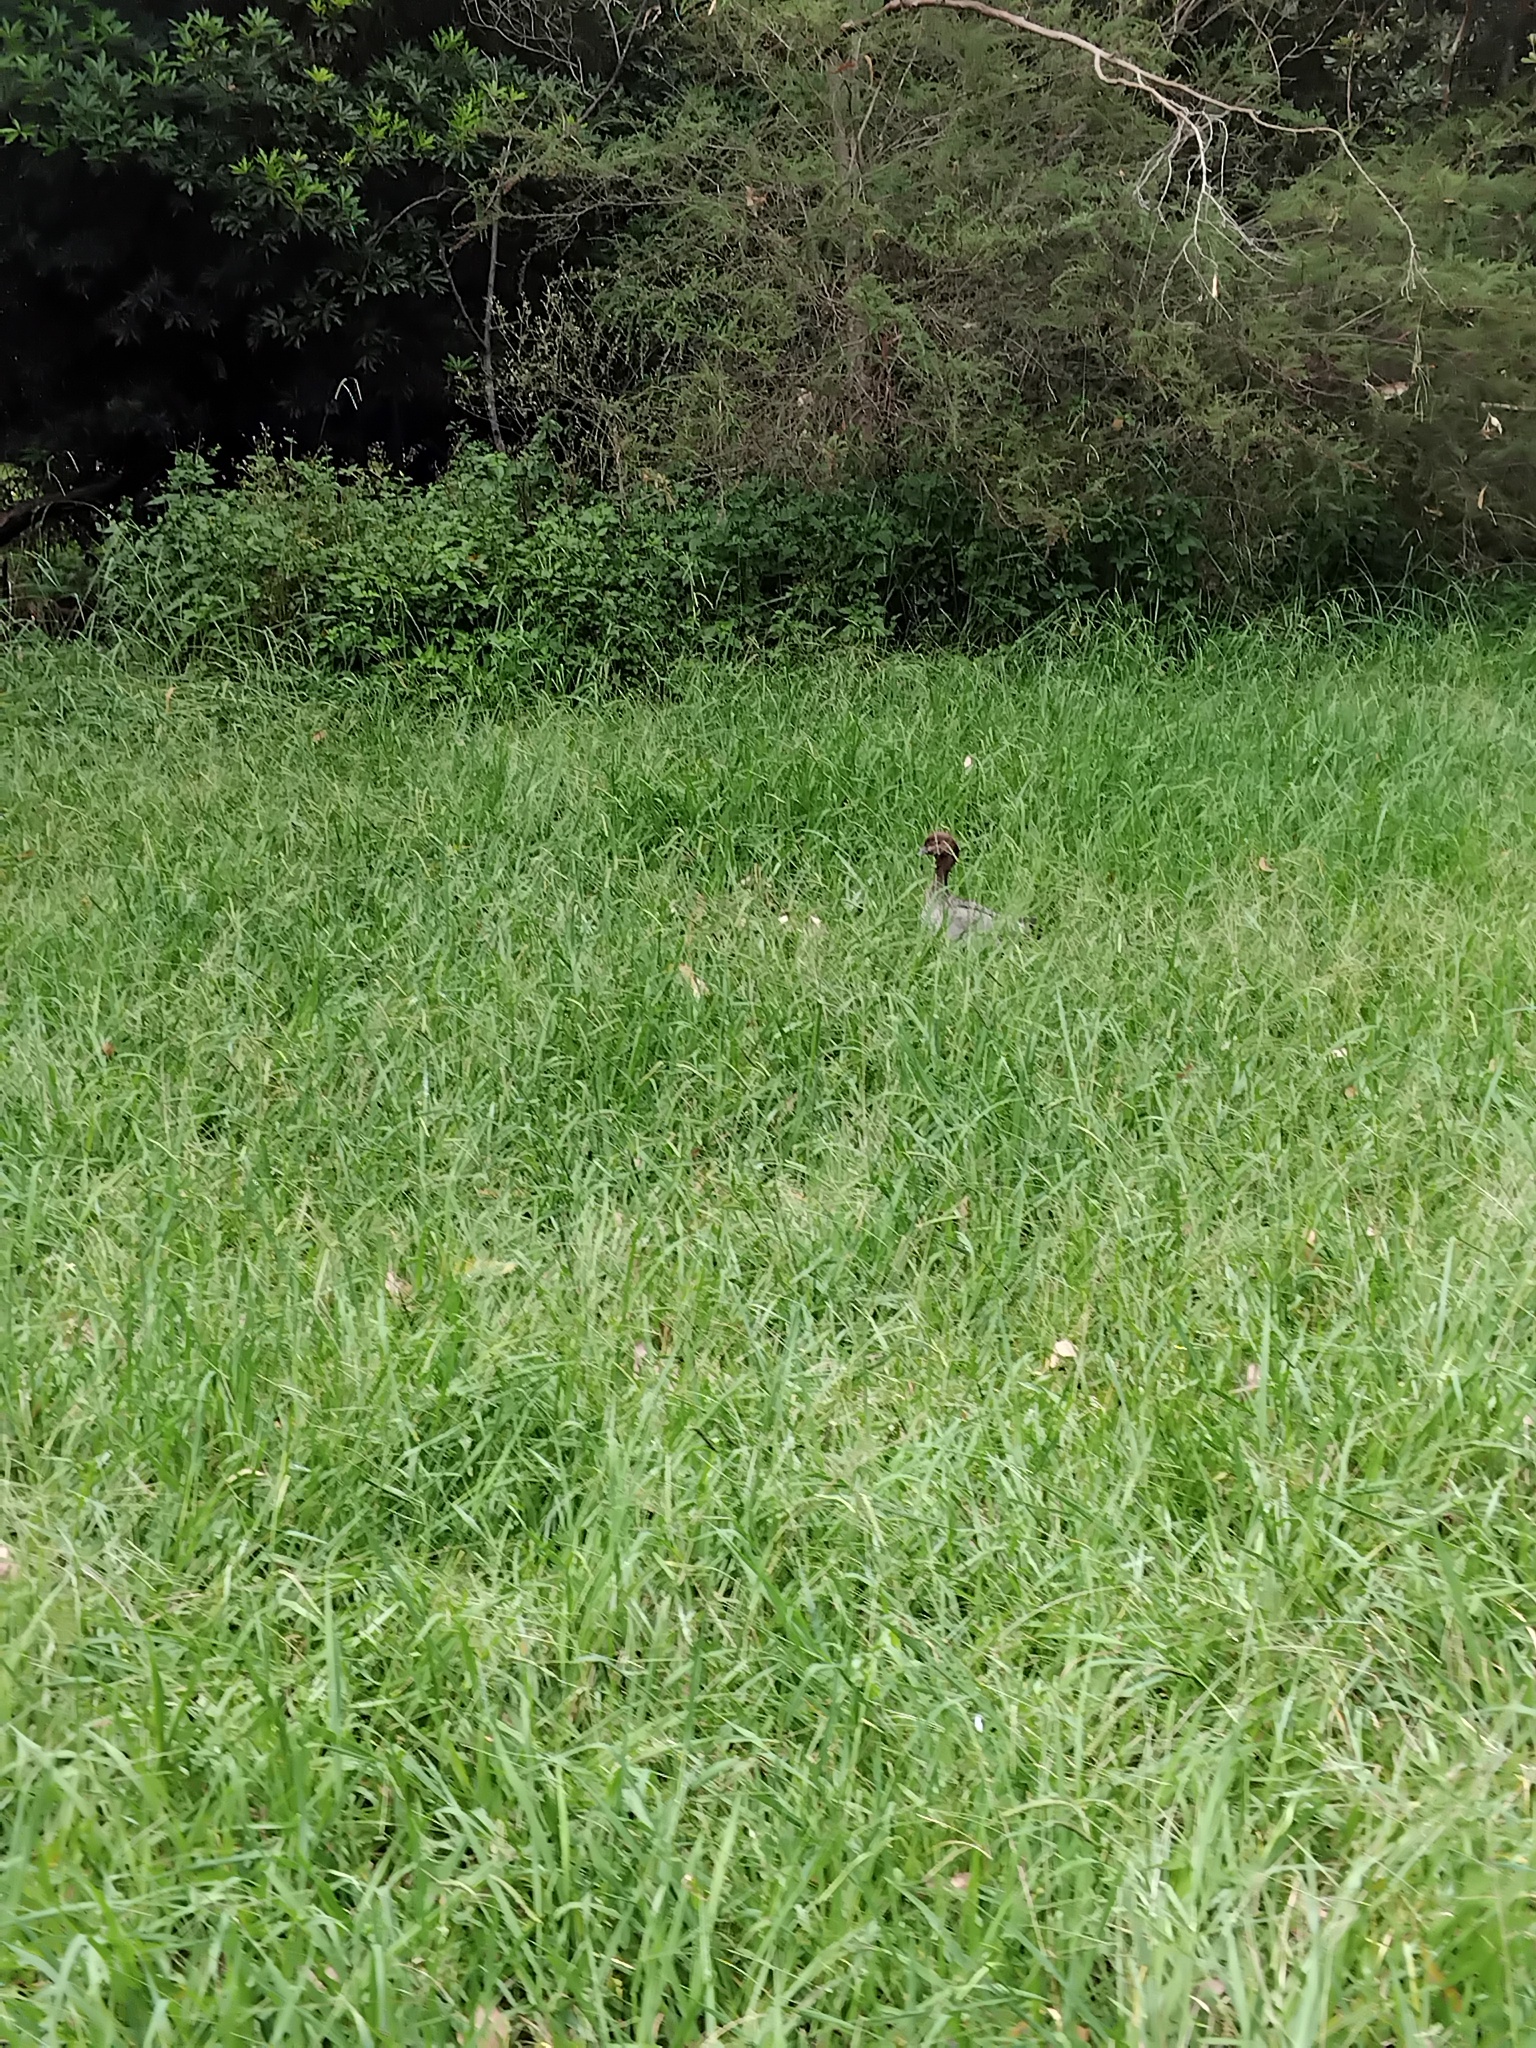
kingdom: Animalia
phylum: Chordata
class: Aves
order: Anseriformes
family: Anatidae
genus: Chenonetta
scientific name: Chenonetta jubata
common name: Maned duck
